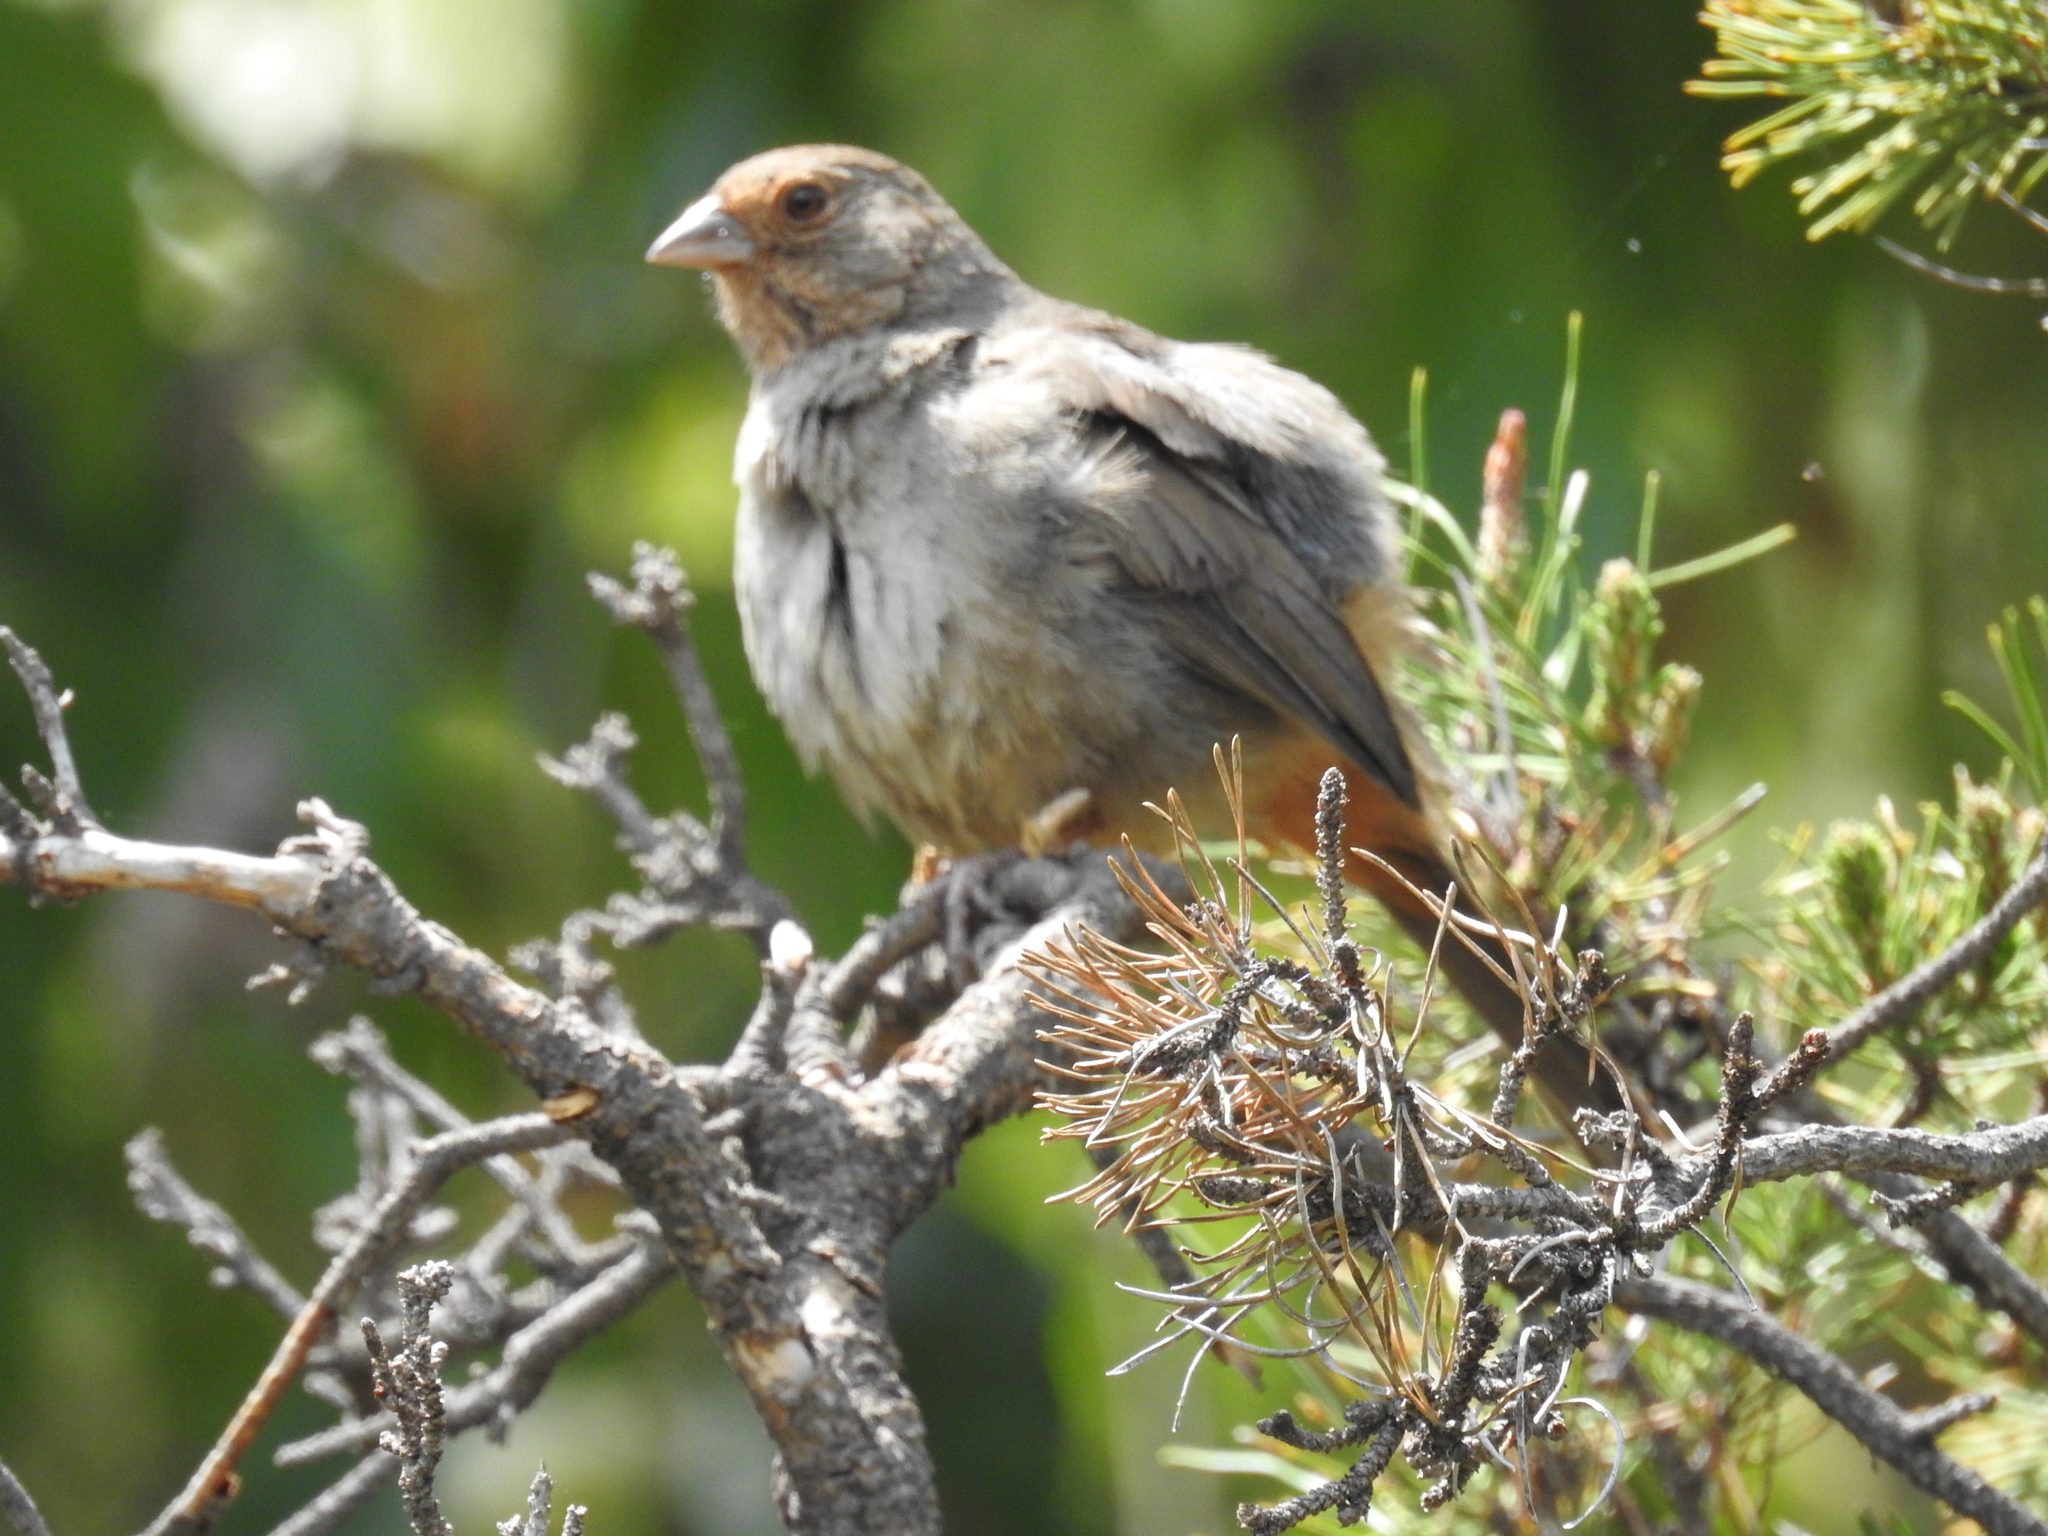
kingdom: Animalia
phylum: Chordata
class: Aves
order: Passeriformes
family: Passerellidae
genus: Melozone
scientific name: Melozone crissalis
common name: California towhee
